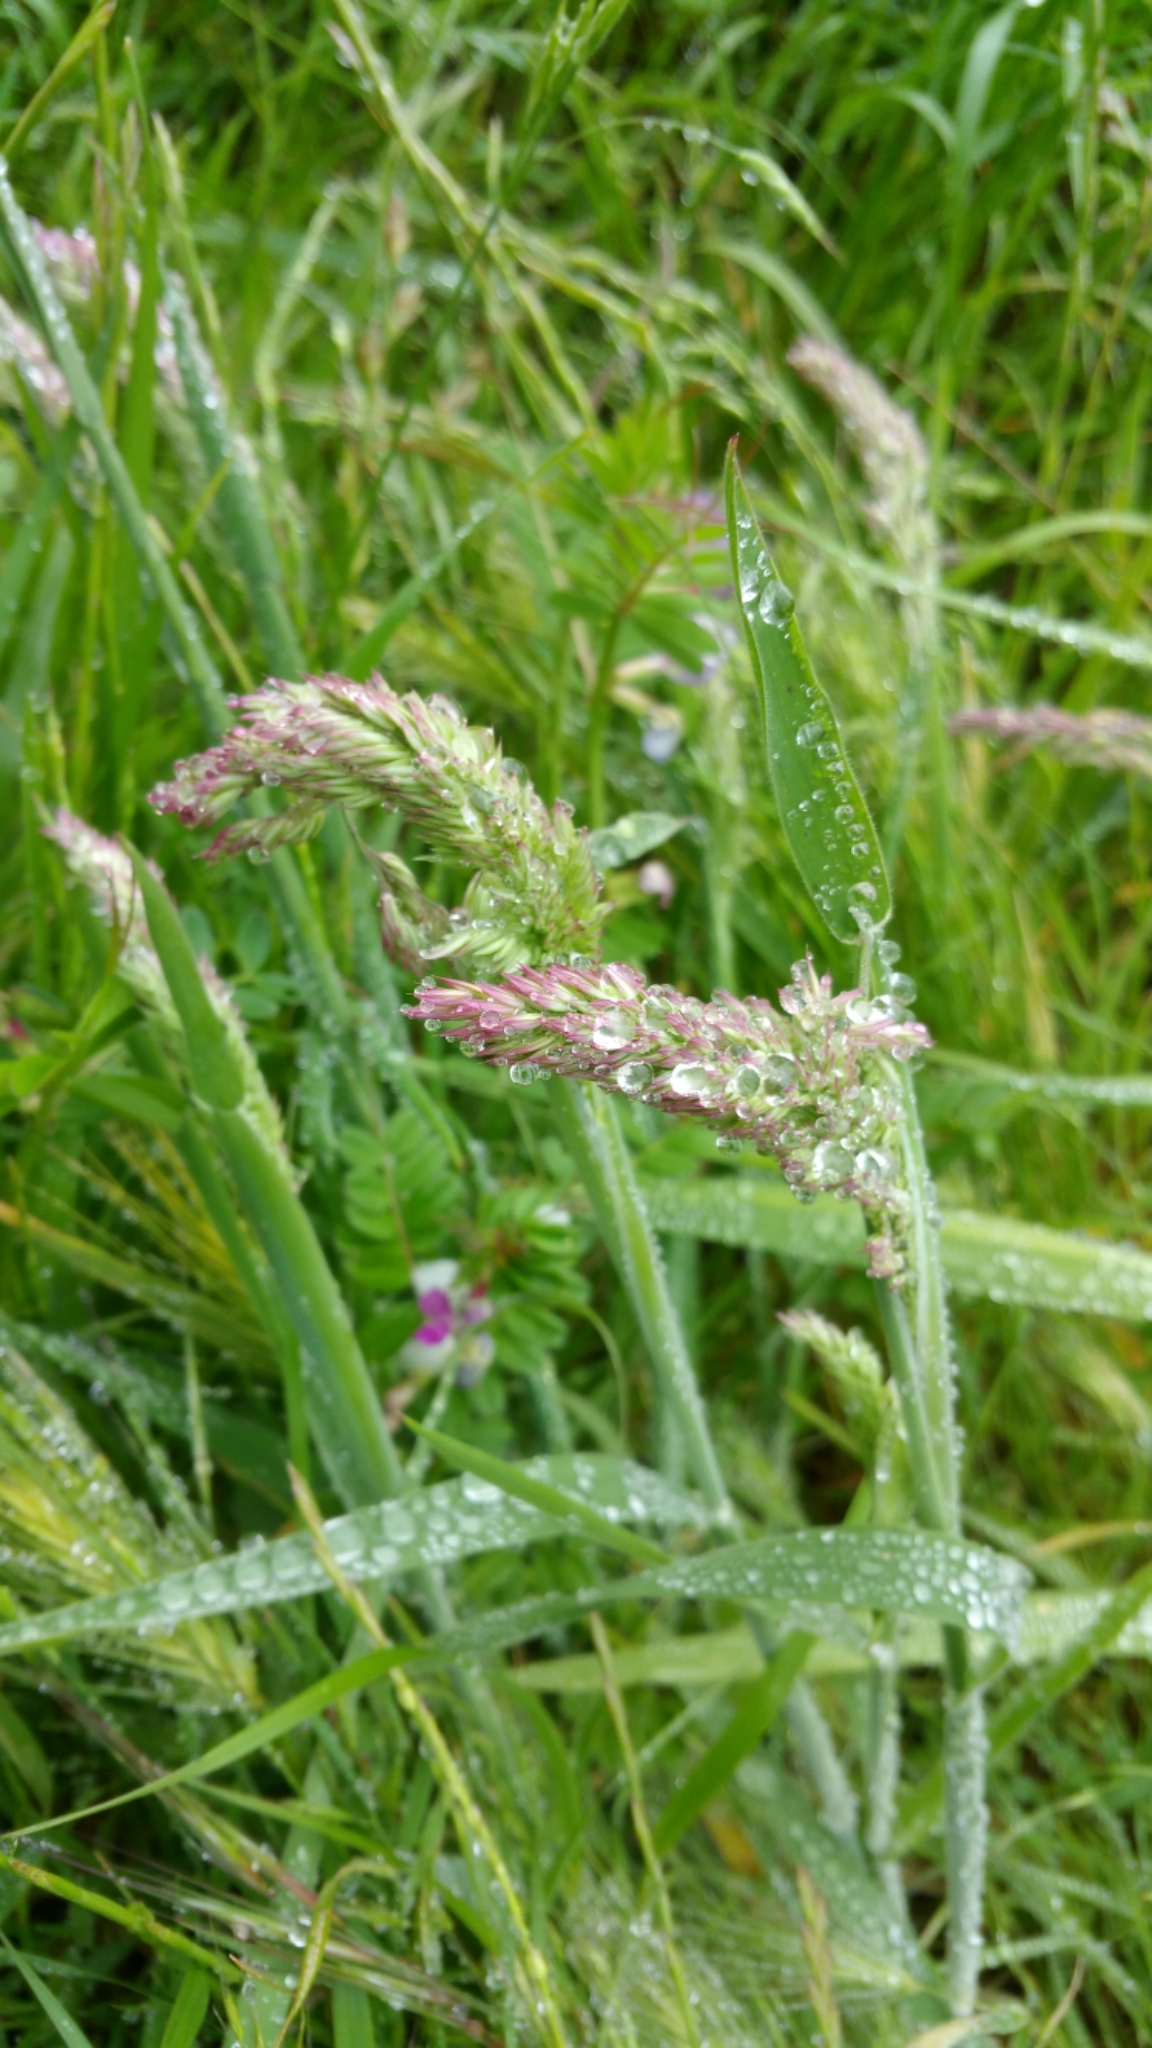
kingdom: Plantae
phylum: Tracheophyta
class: Liliopsida
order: Poales
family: Poaceae
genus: Holcus
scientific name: Holcus lanatus
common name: Yorkshire-fog
